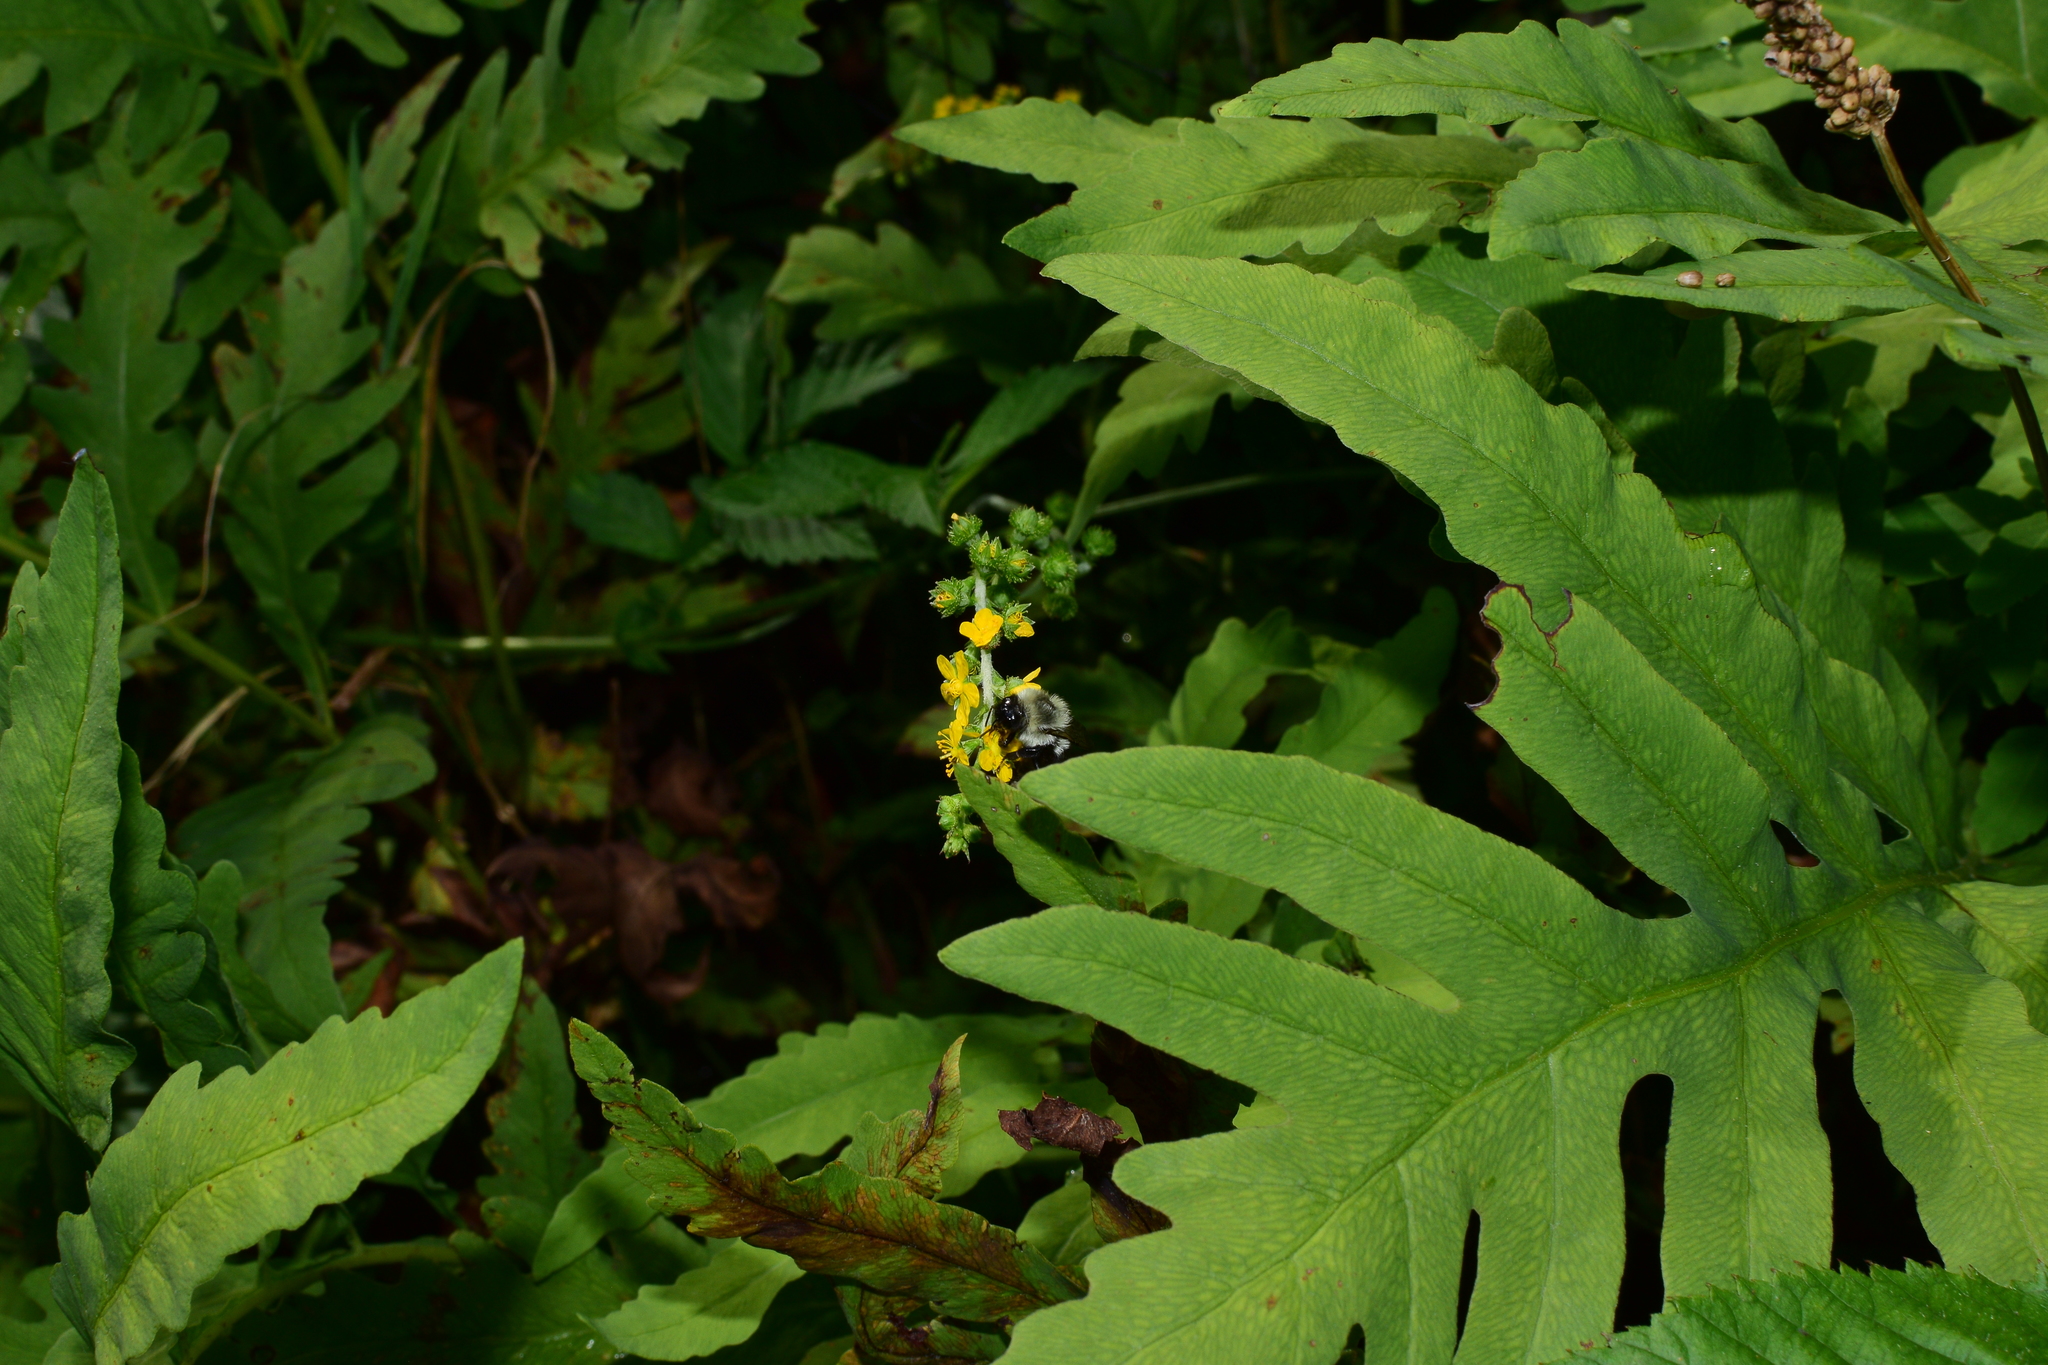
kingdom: Animalia
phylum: Arthropoda
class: Insecta
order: Hymenoptera
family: Apidae
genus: Bombus
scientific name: Bombus impatiens
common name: Common eastern bumble bee
